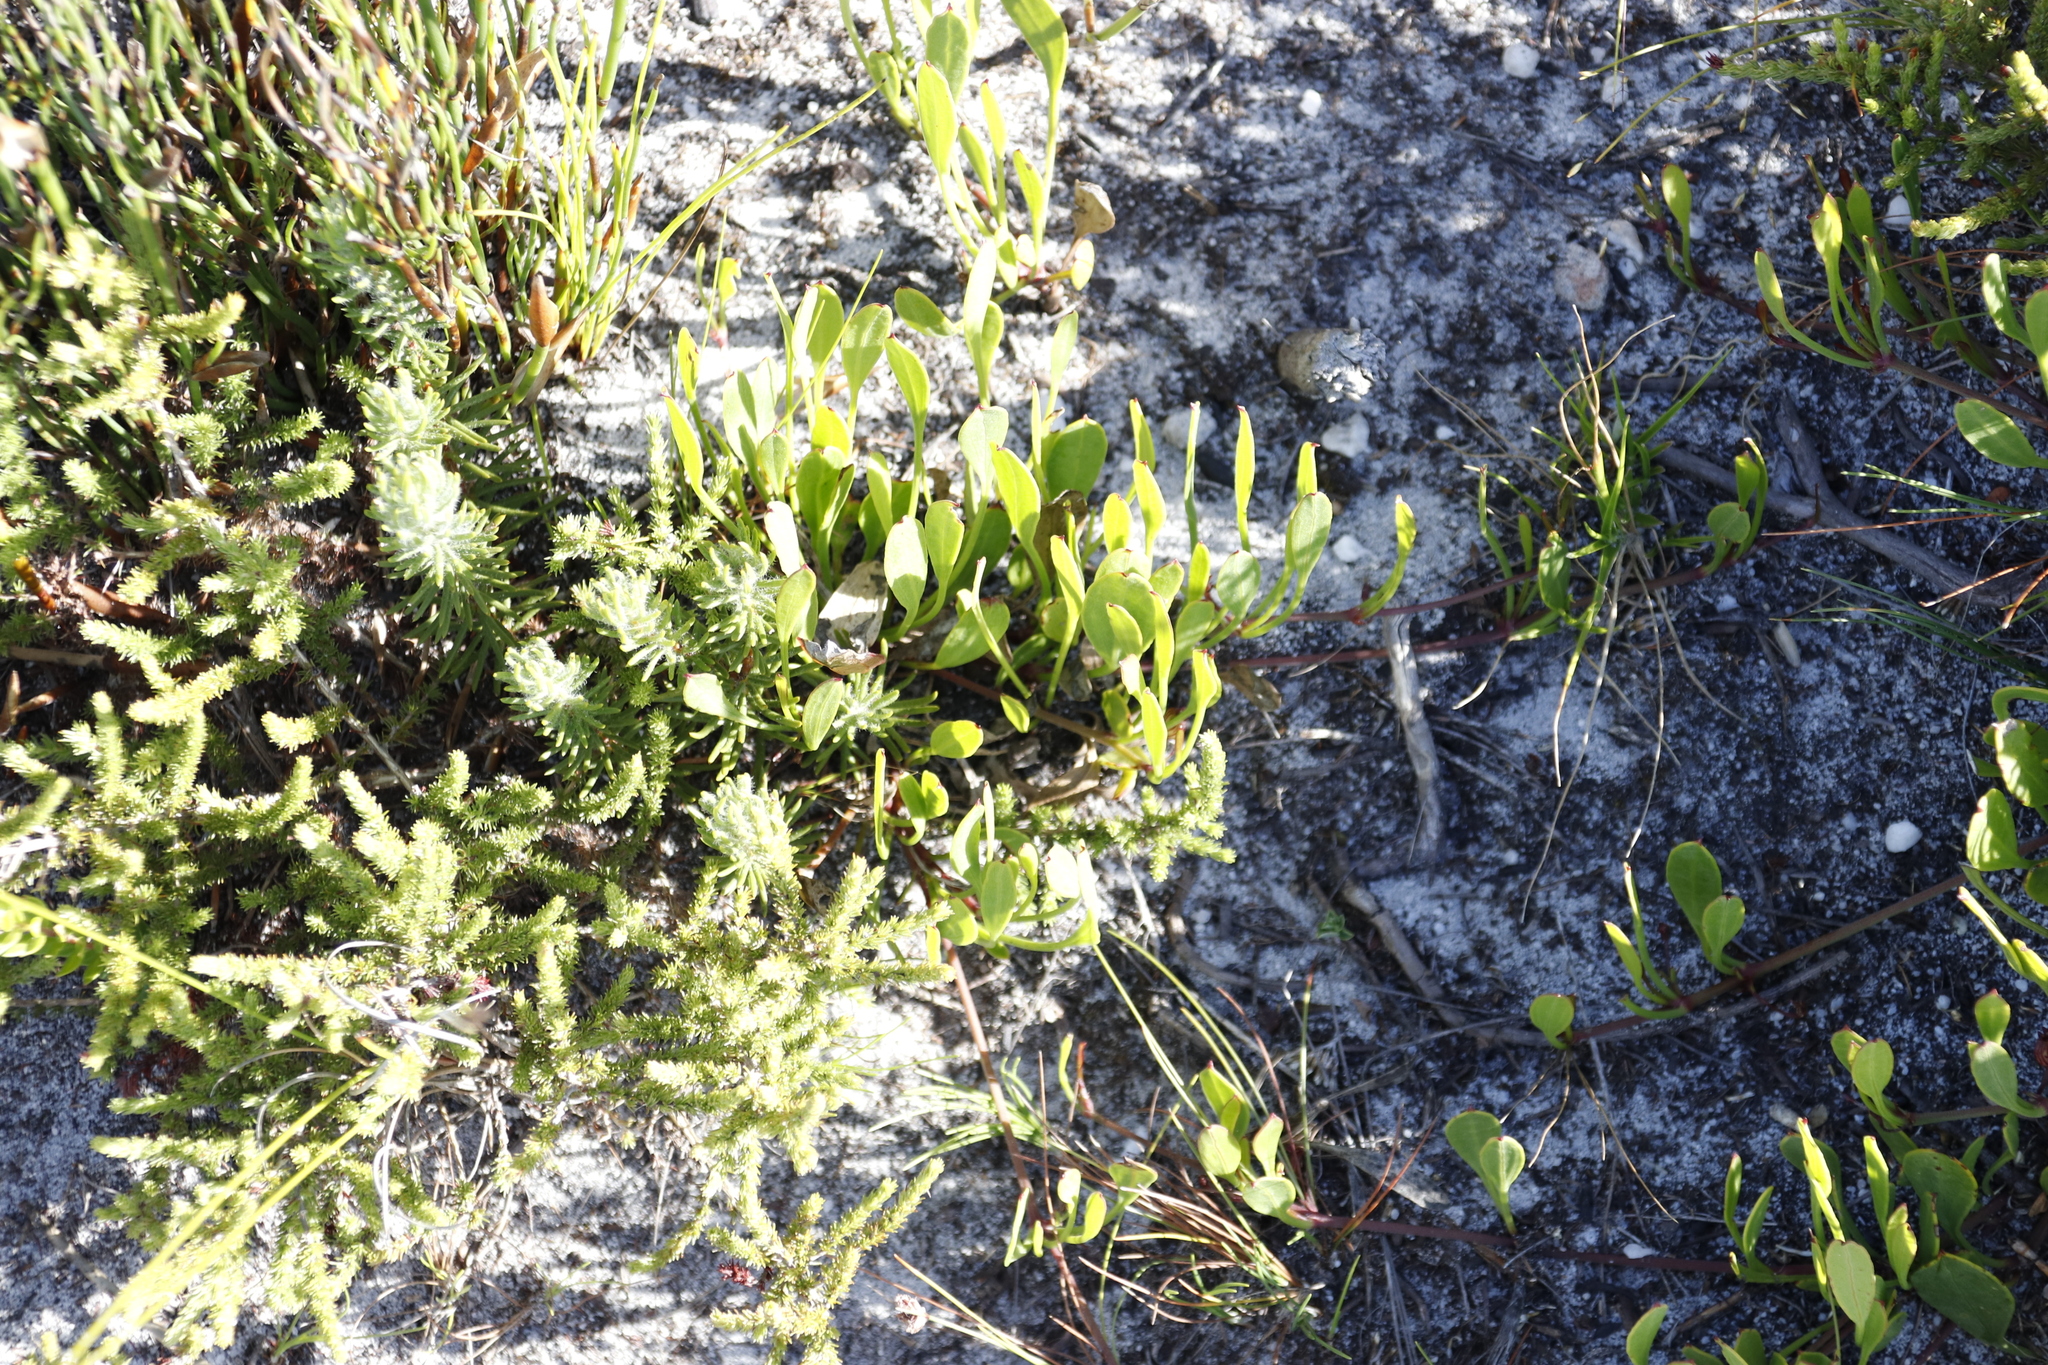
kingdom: Plantae
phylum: Tracheophyta
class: Magnoliopsida
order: Apiales
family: Apiaceae
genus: Centella
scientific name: Centella glabrata
